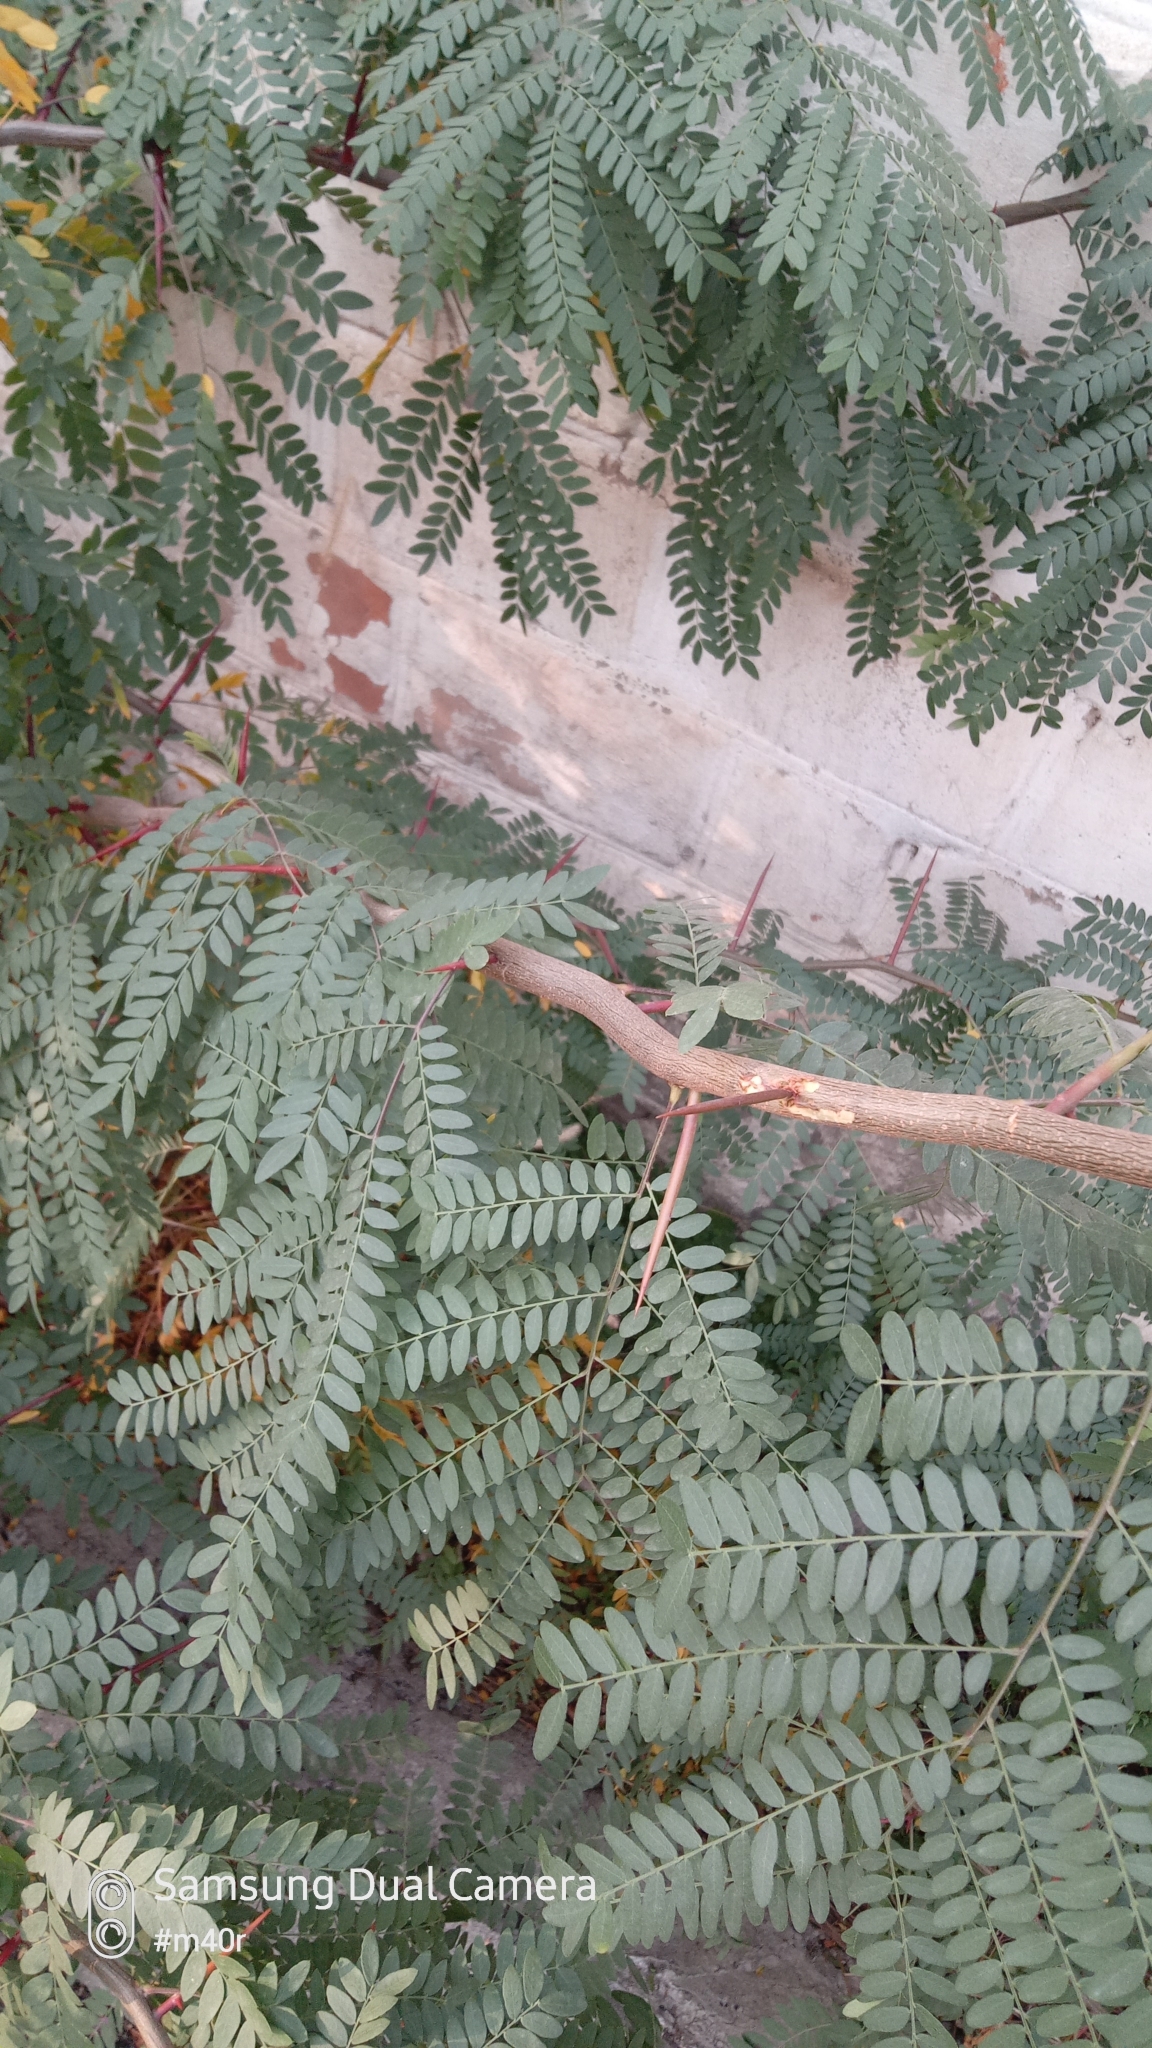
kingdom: Plantae
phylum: Tracheophyta
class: Magnoliopsida
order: Fabales
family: Fabaceae
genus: Gleditsia
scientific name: Gleditsia triacanthos
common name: Common honeylocust
